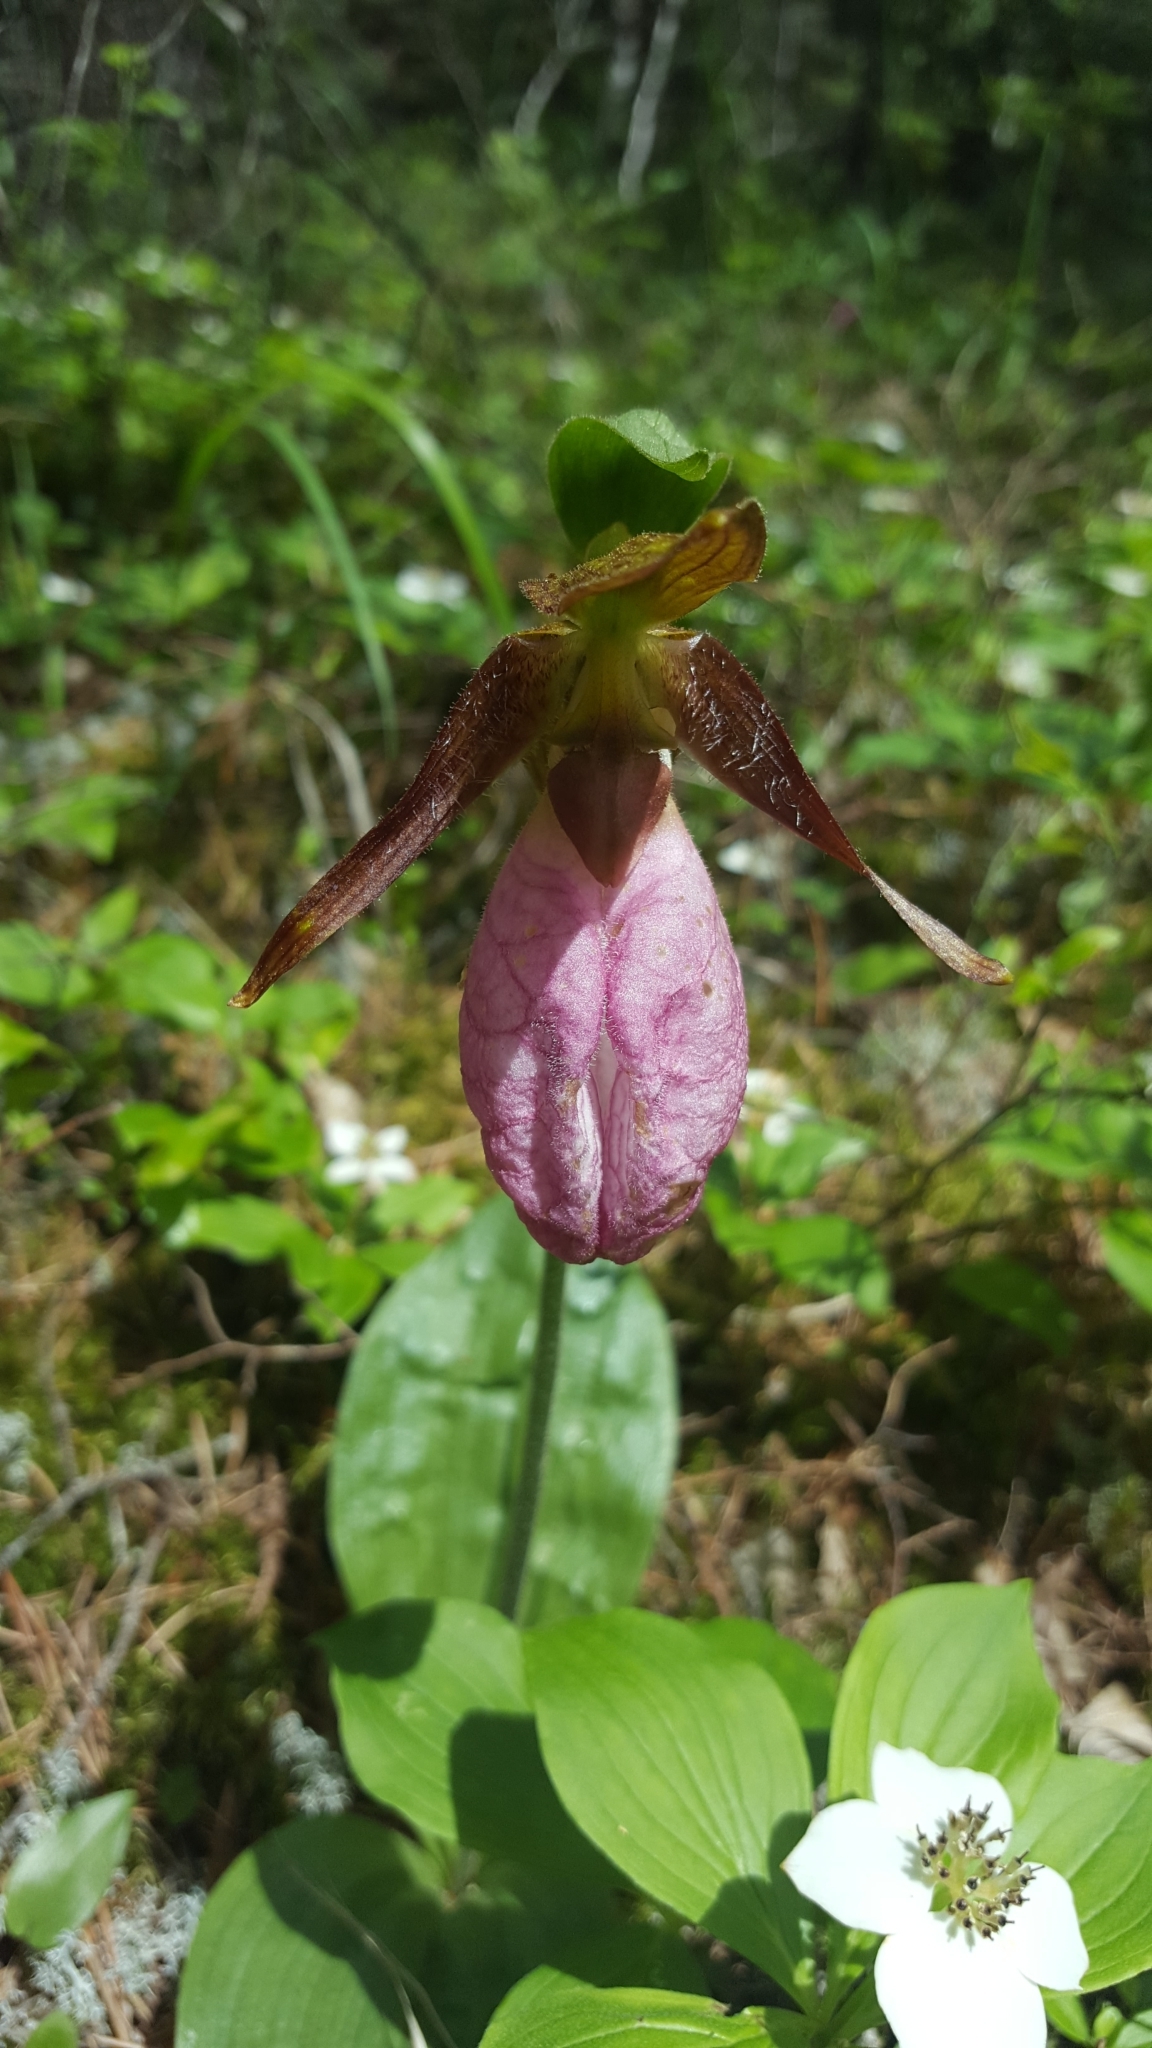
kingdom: Plantae
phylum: Tracheophyta
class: Liliopsida
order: Asparagales
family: Orchidaceae
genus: Cypripedium
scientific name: Cypripedium acaule
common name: Pink lady's-slipper
